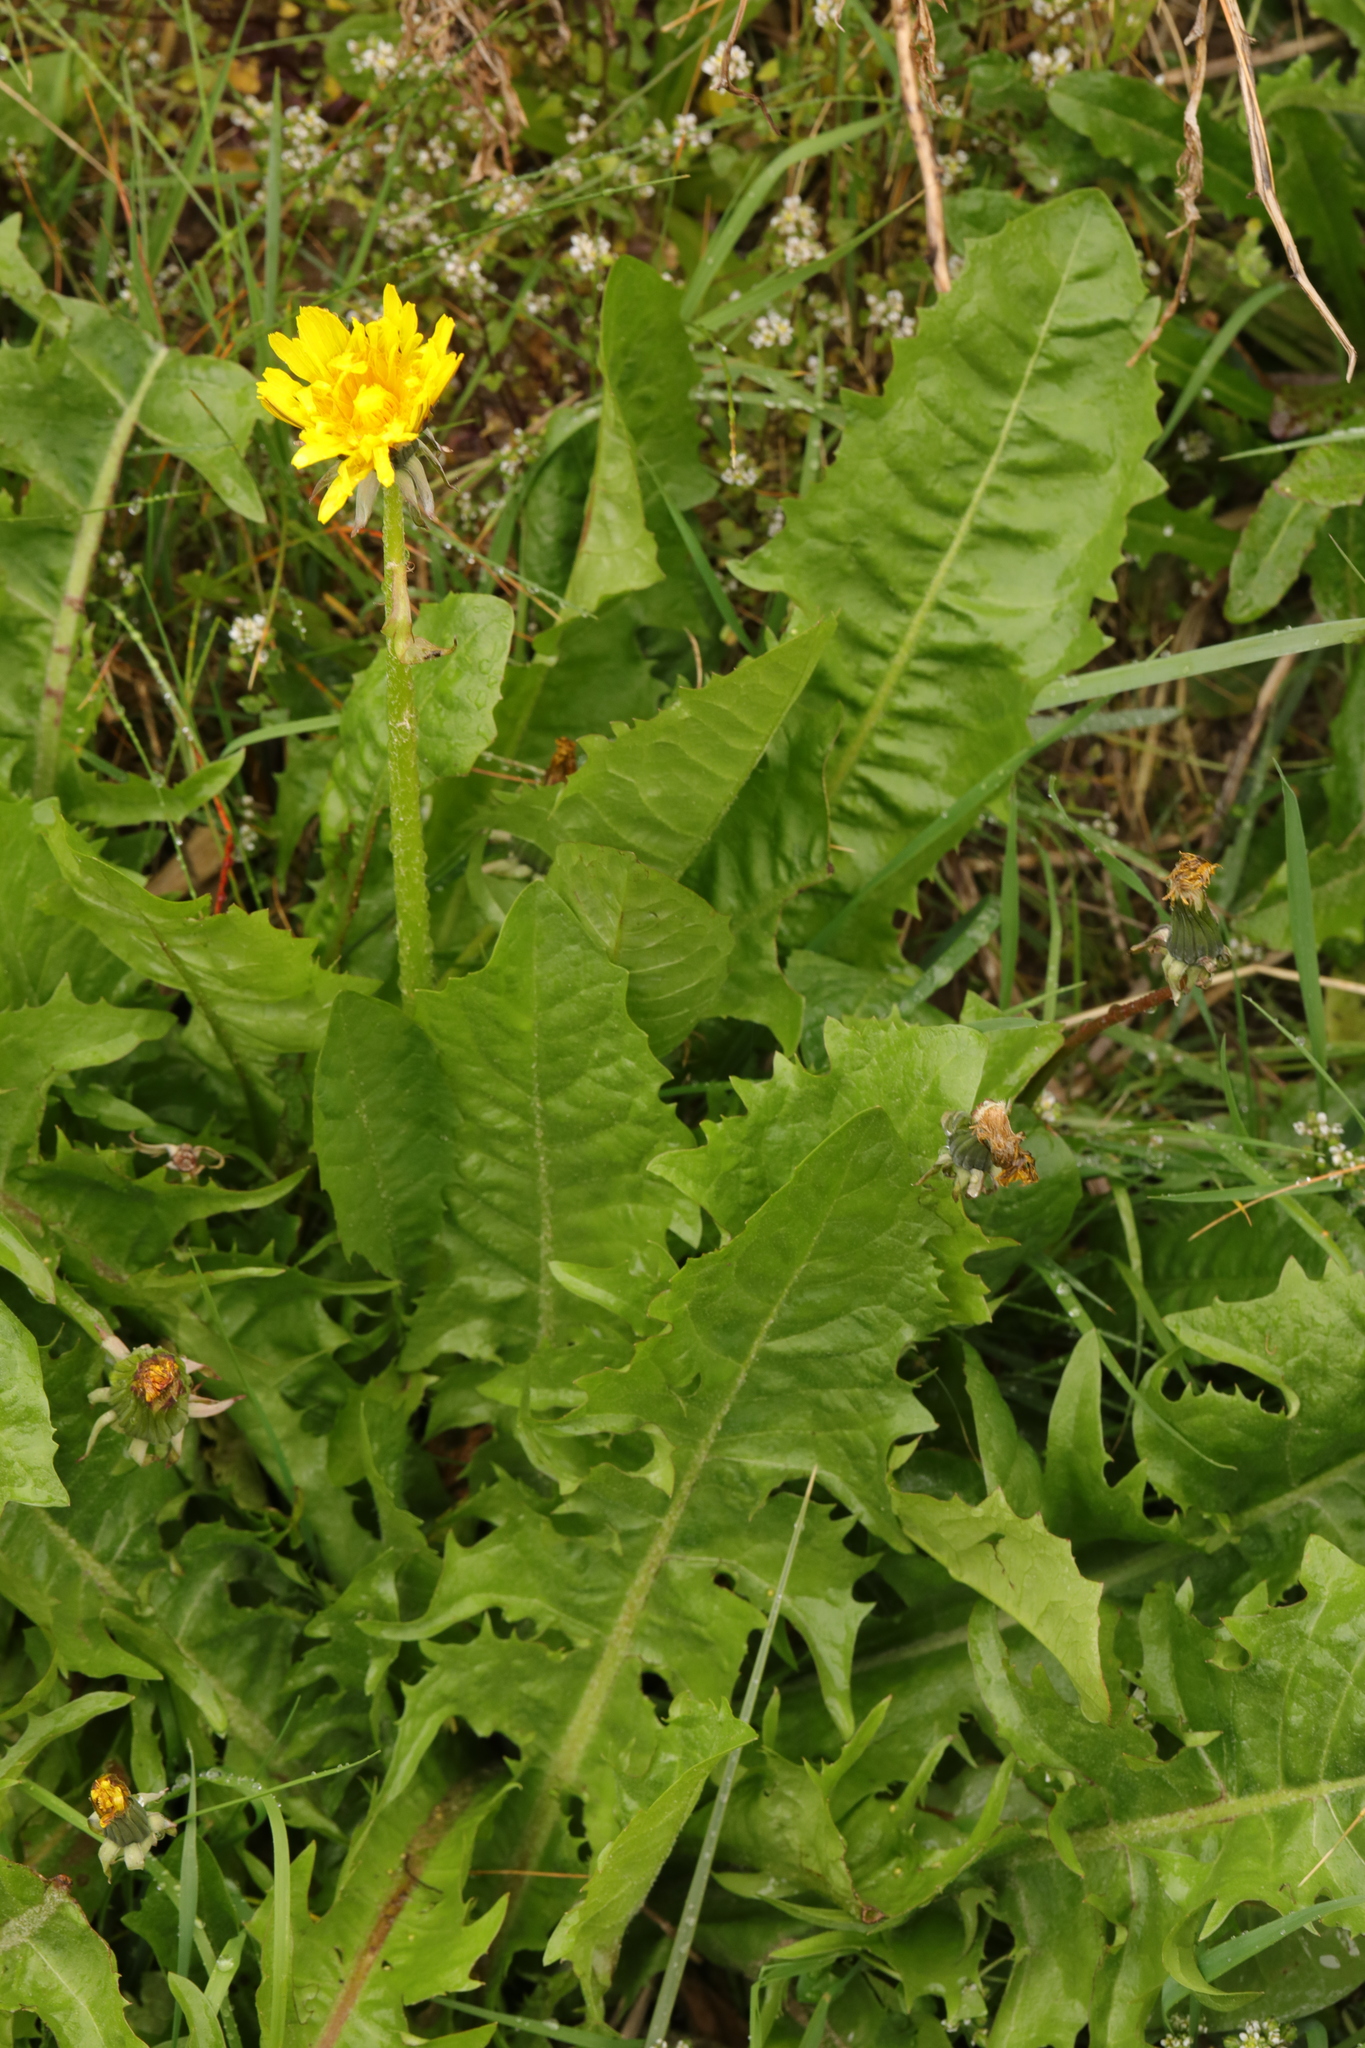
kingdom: Plantae
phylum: Tracheophyta
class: Magnoliopsida
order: Asterales
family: Asteraceae
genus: Taraxacum
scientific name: Taraxacum officinale
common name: Common dandelion
